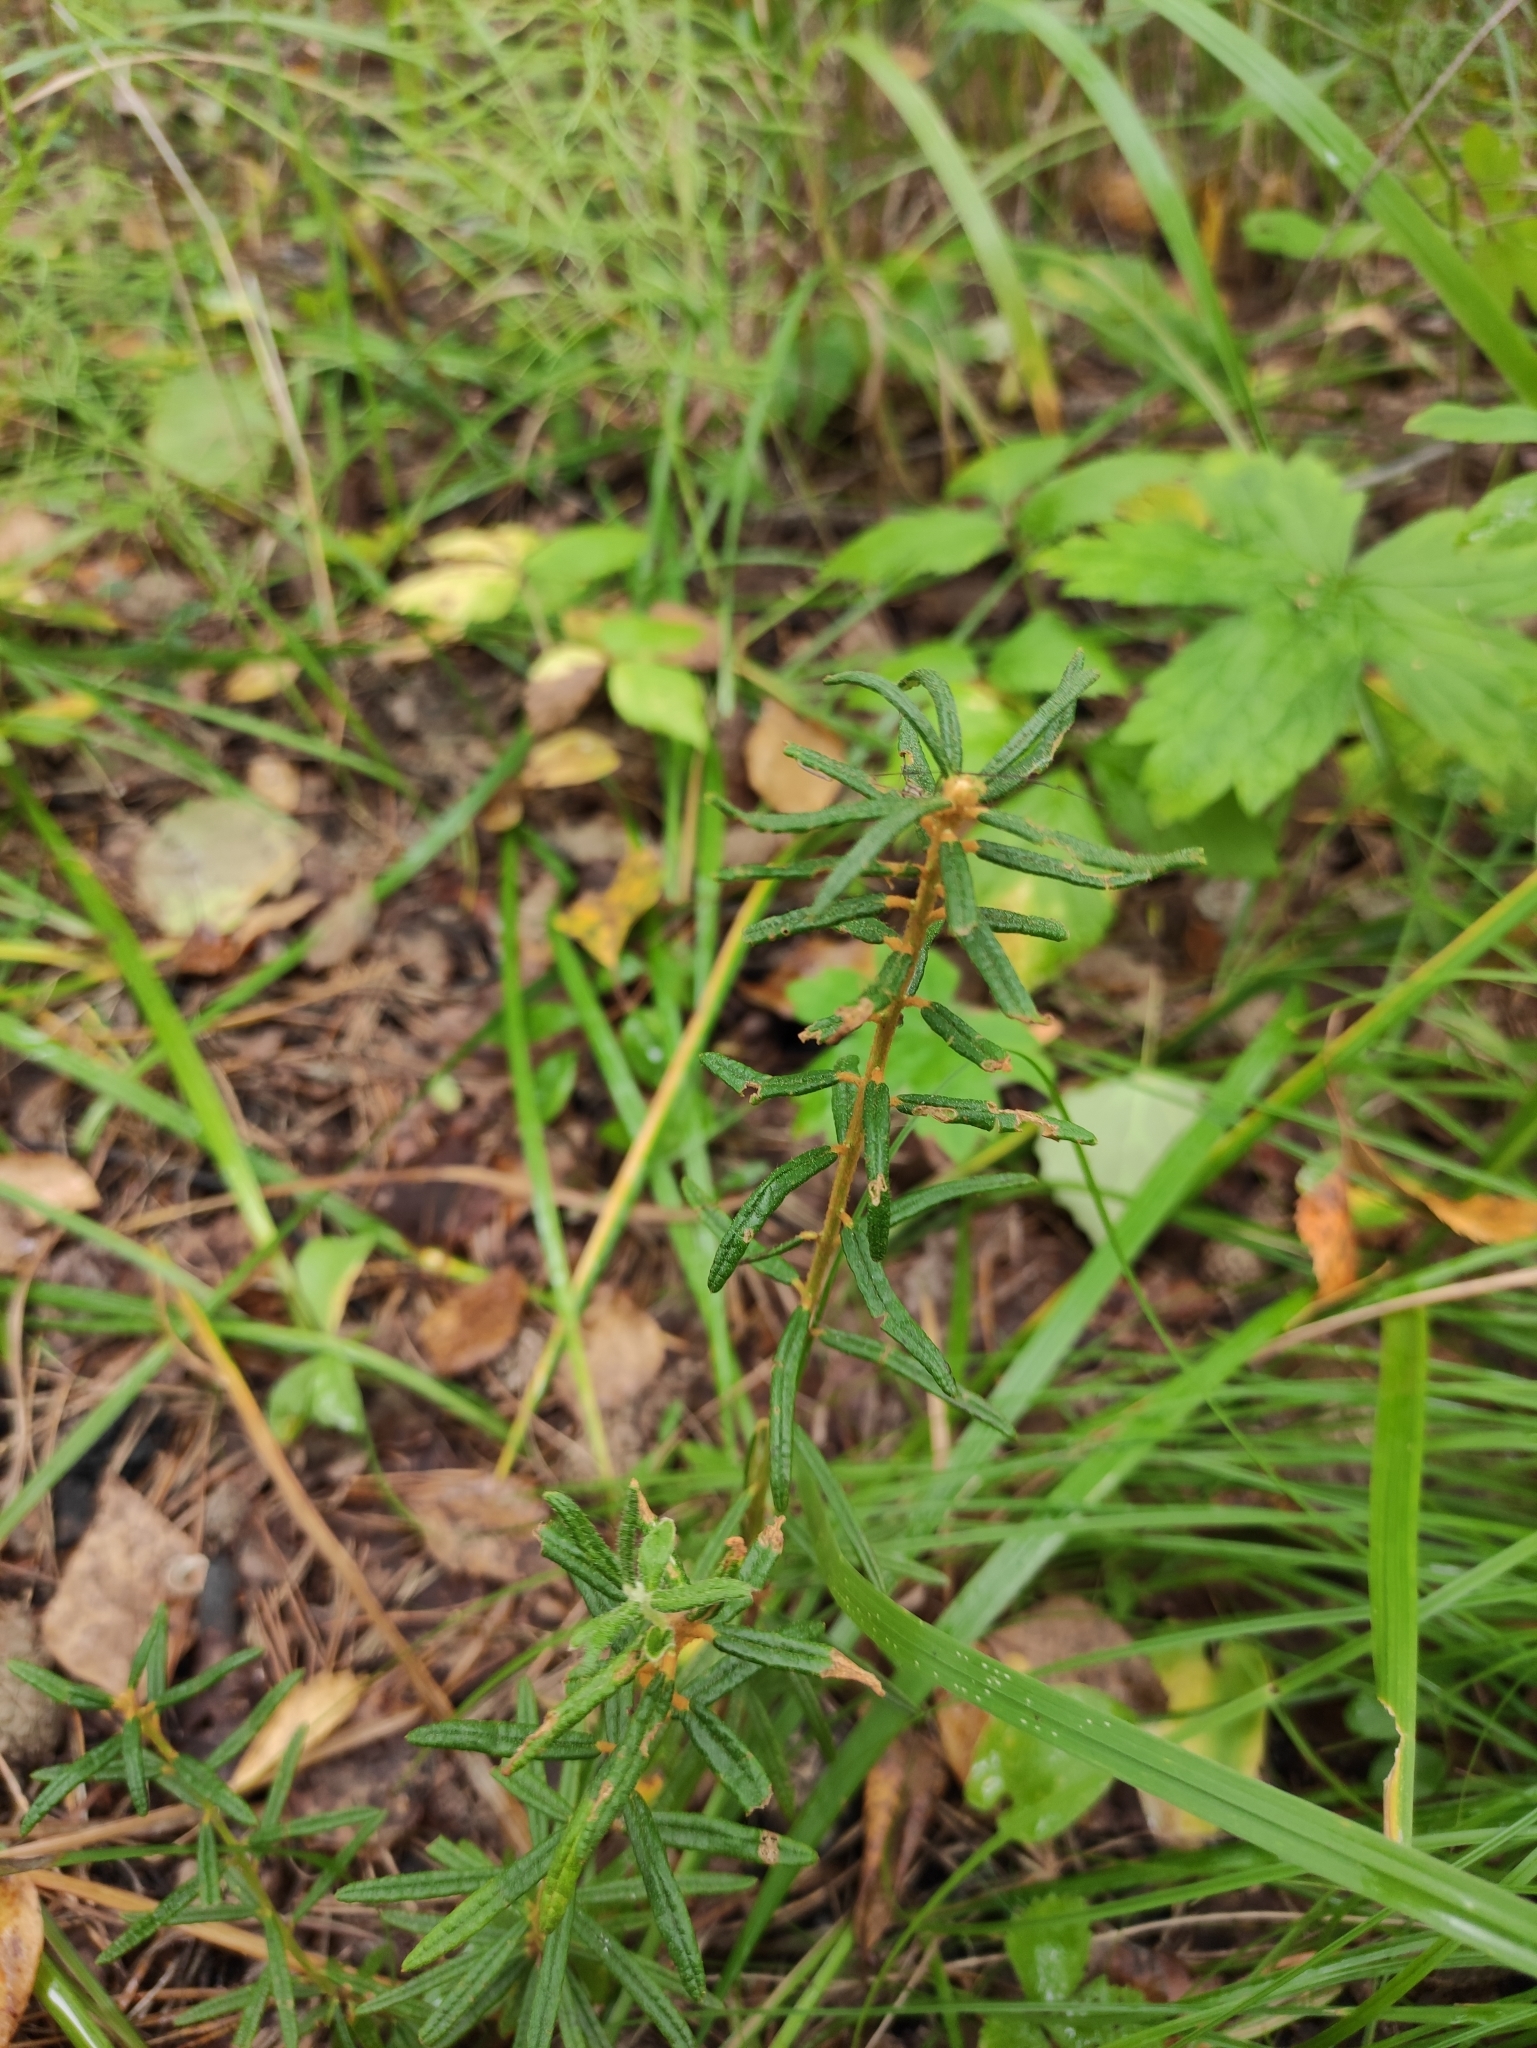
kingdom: Plantae
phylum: Tracheophyta
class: Magnoliopsida
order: Ericales
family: Ericaceae
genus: Rhododendron
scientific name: Rhododendron tomentosum
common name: Marsh labrador tea
